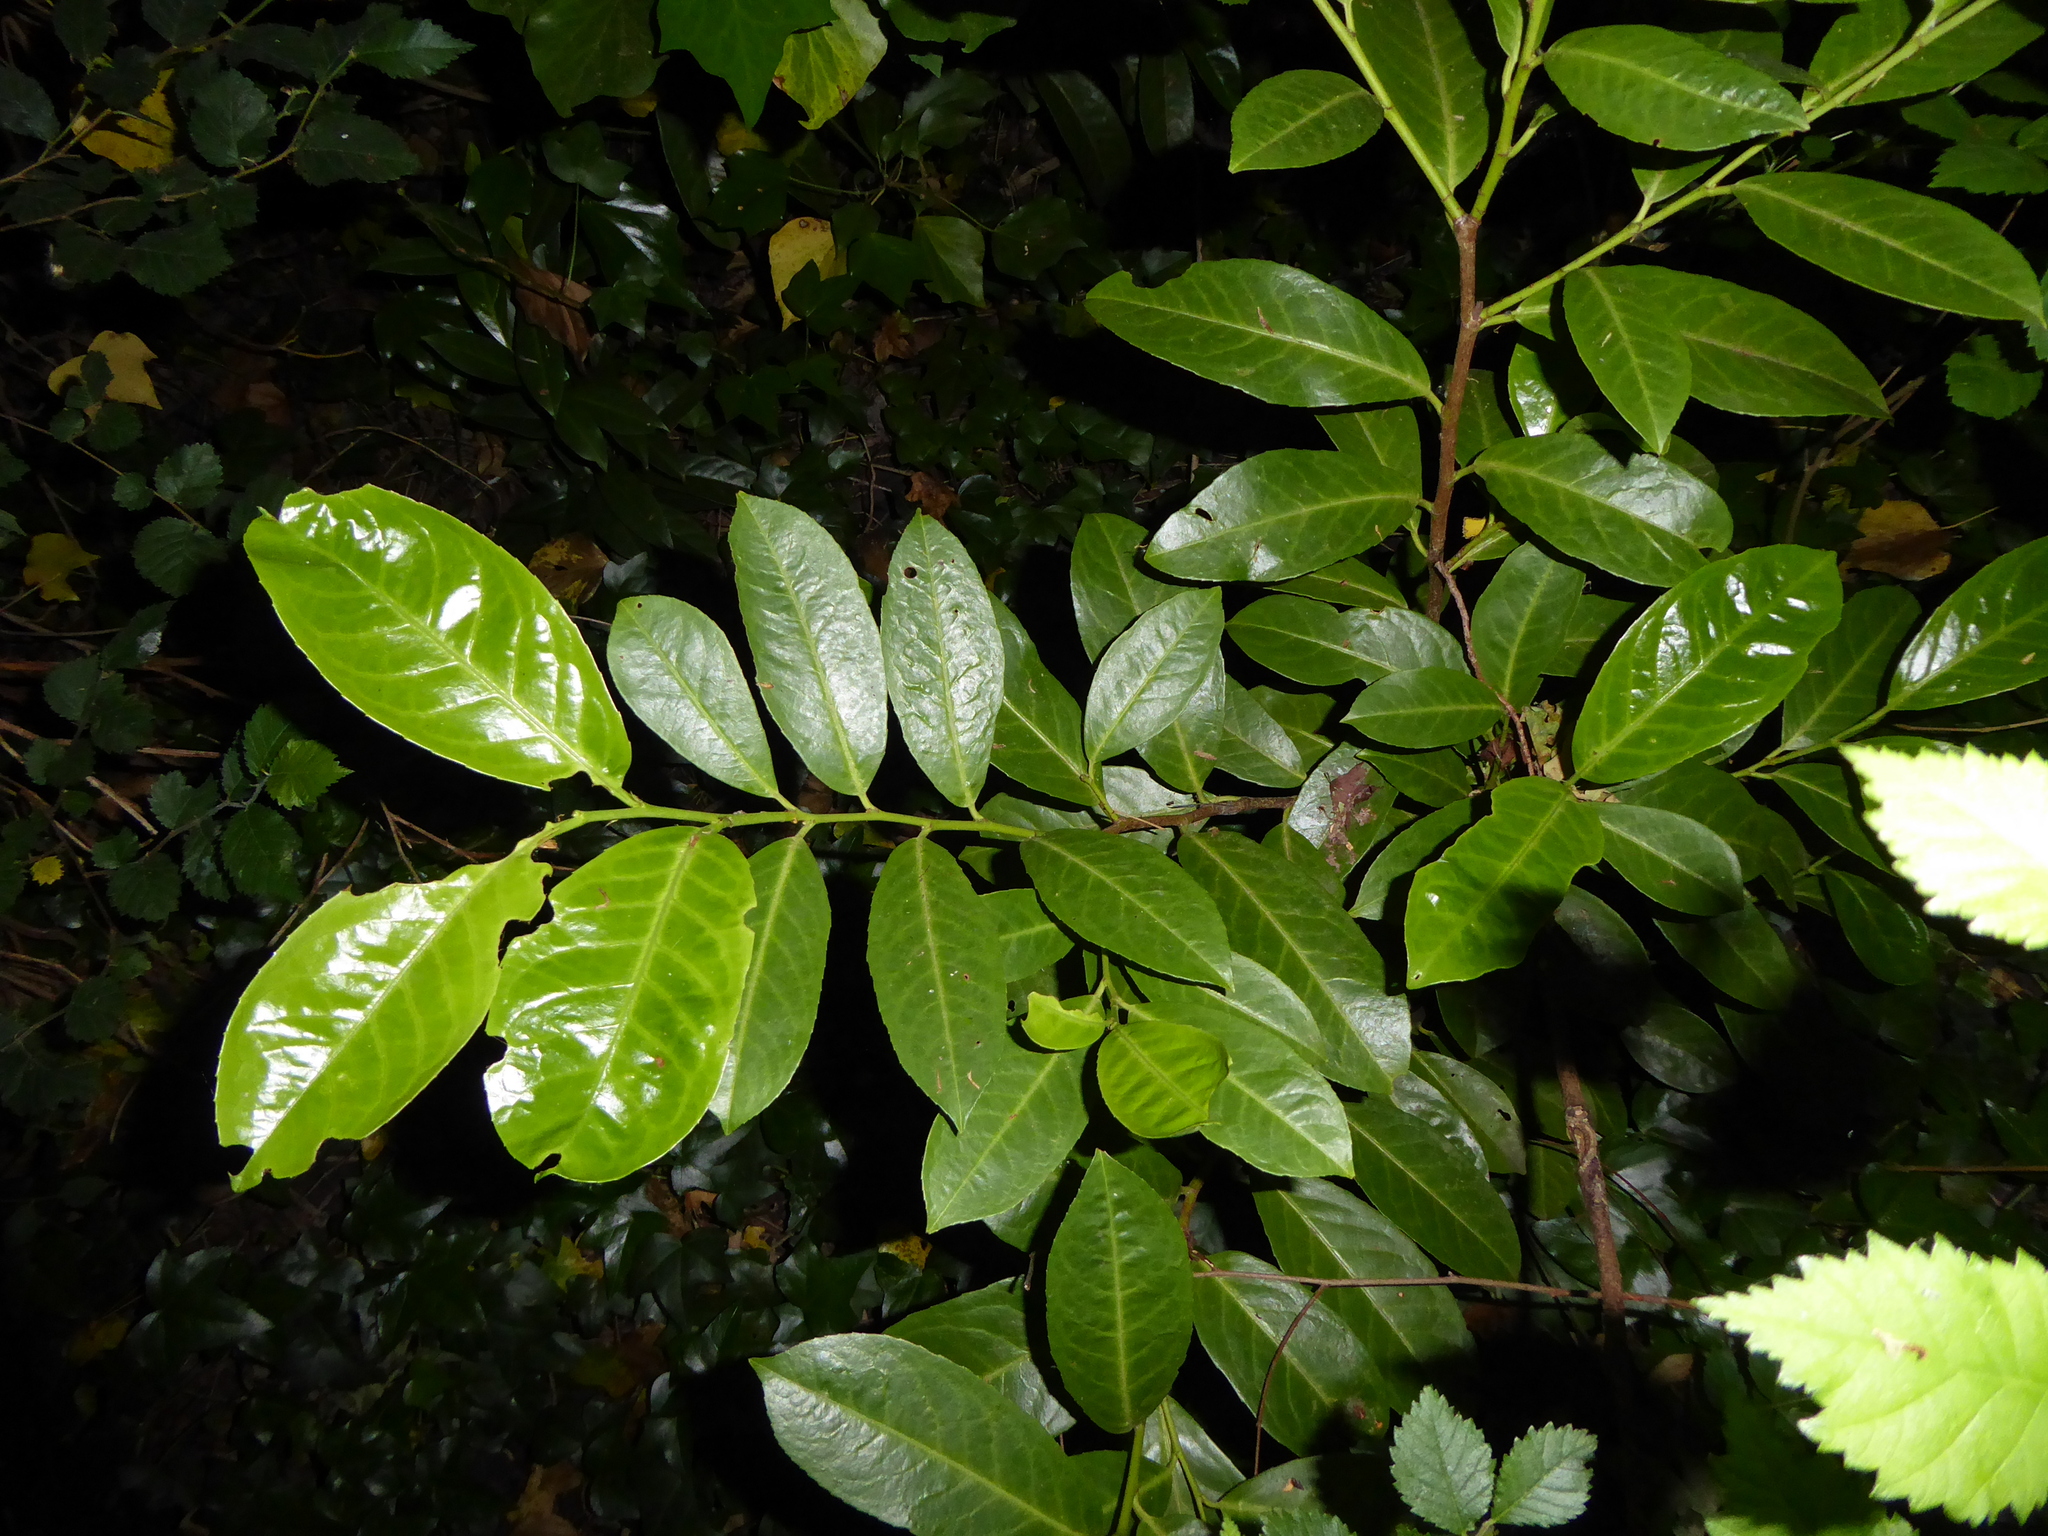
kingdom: Plantae
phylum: Tracheophyta
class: Magnoliopsida
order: Rosales
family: Rosaceae
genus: Prunus
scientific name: Prunus laurocerasus
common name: Cherry laurel
